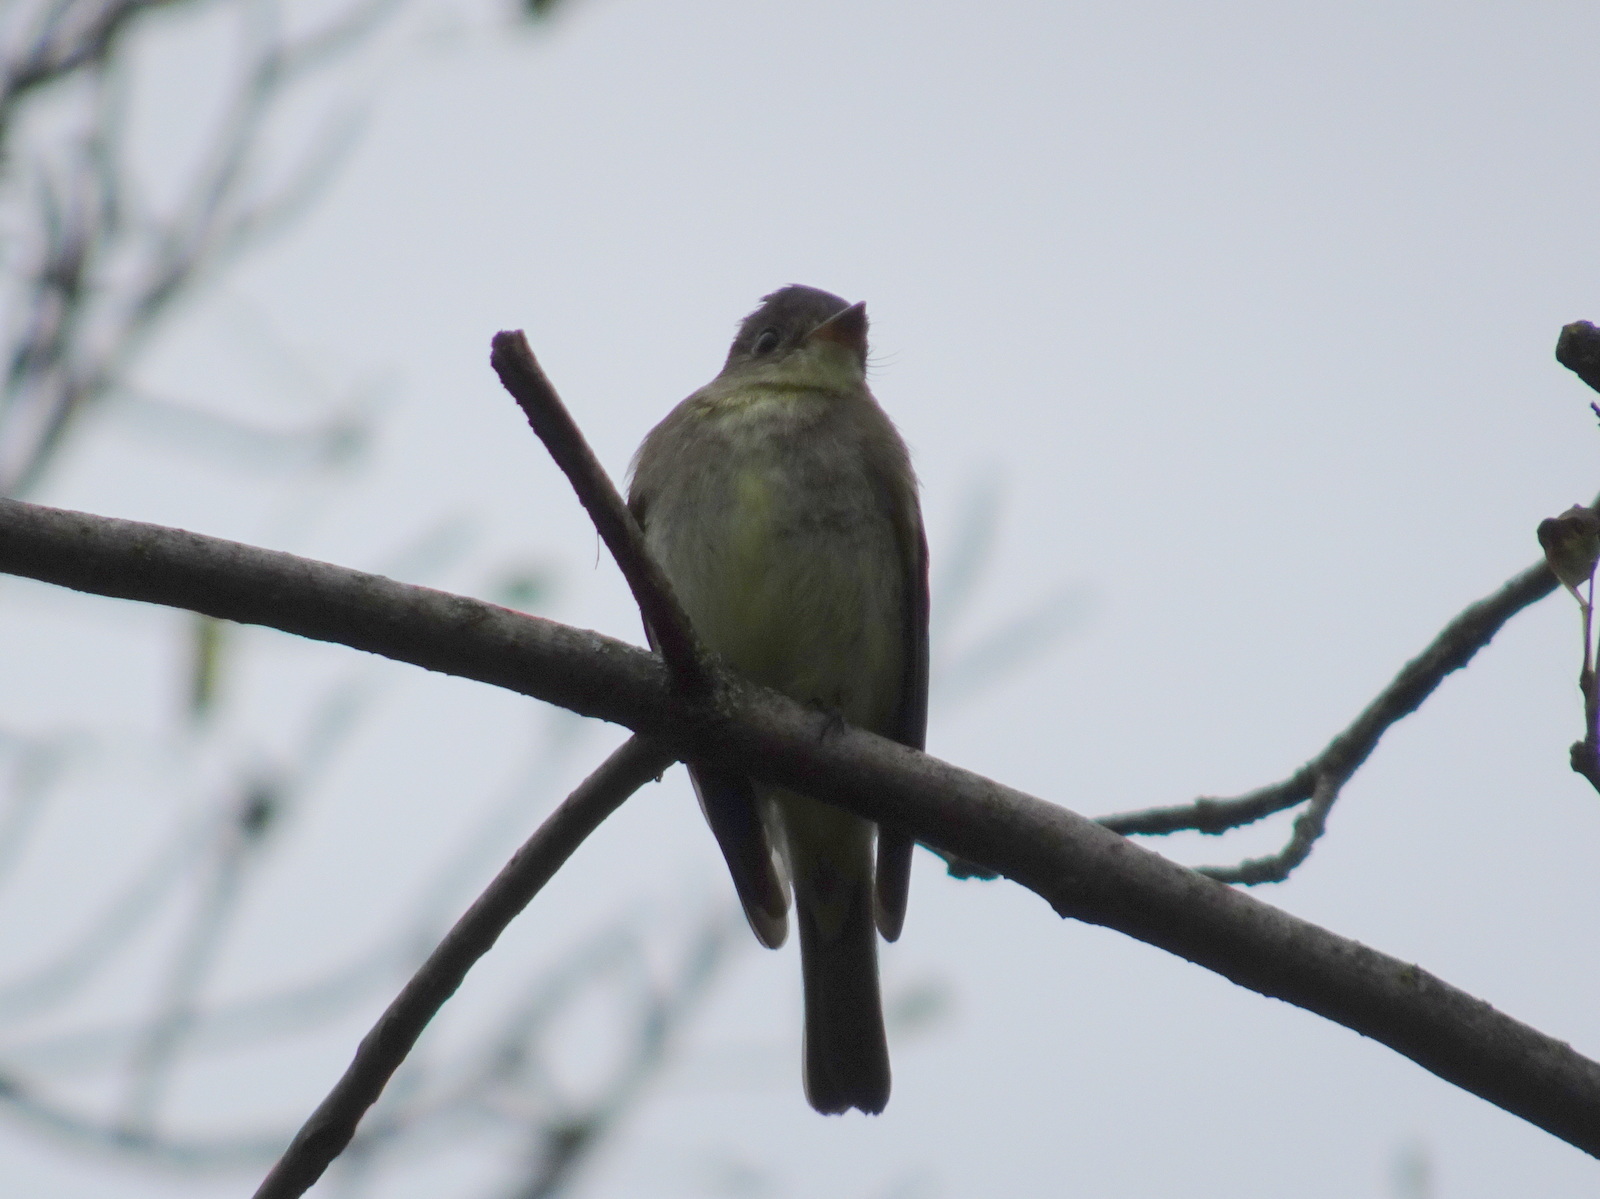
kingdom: Animalia
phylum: Chordata
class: Aves
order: Passeriformes
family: Tyrannidae
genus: Contopus
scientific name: Contopus virens
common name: Eastern wood-pewee
